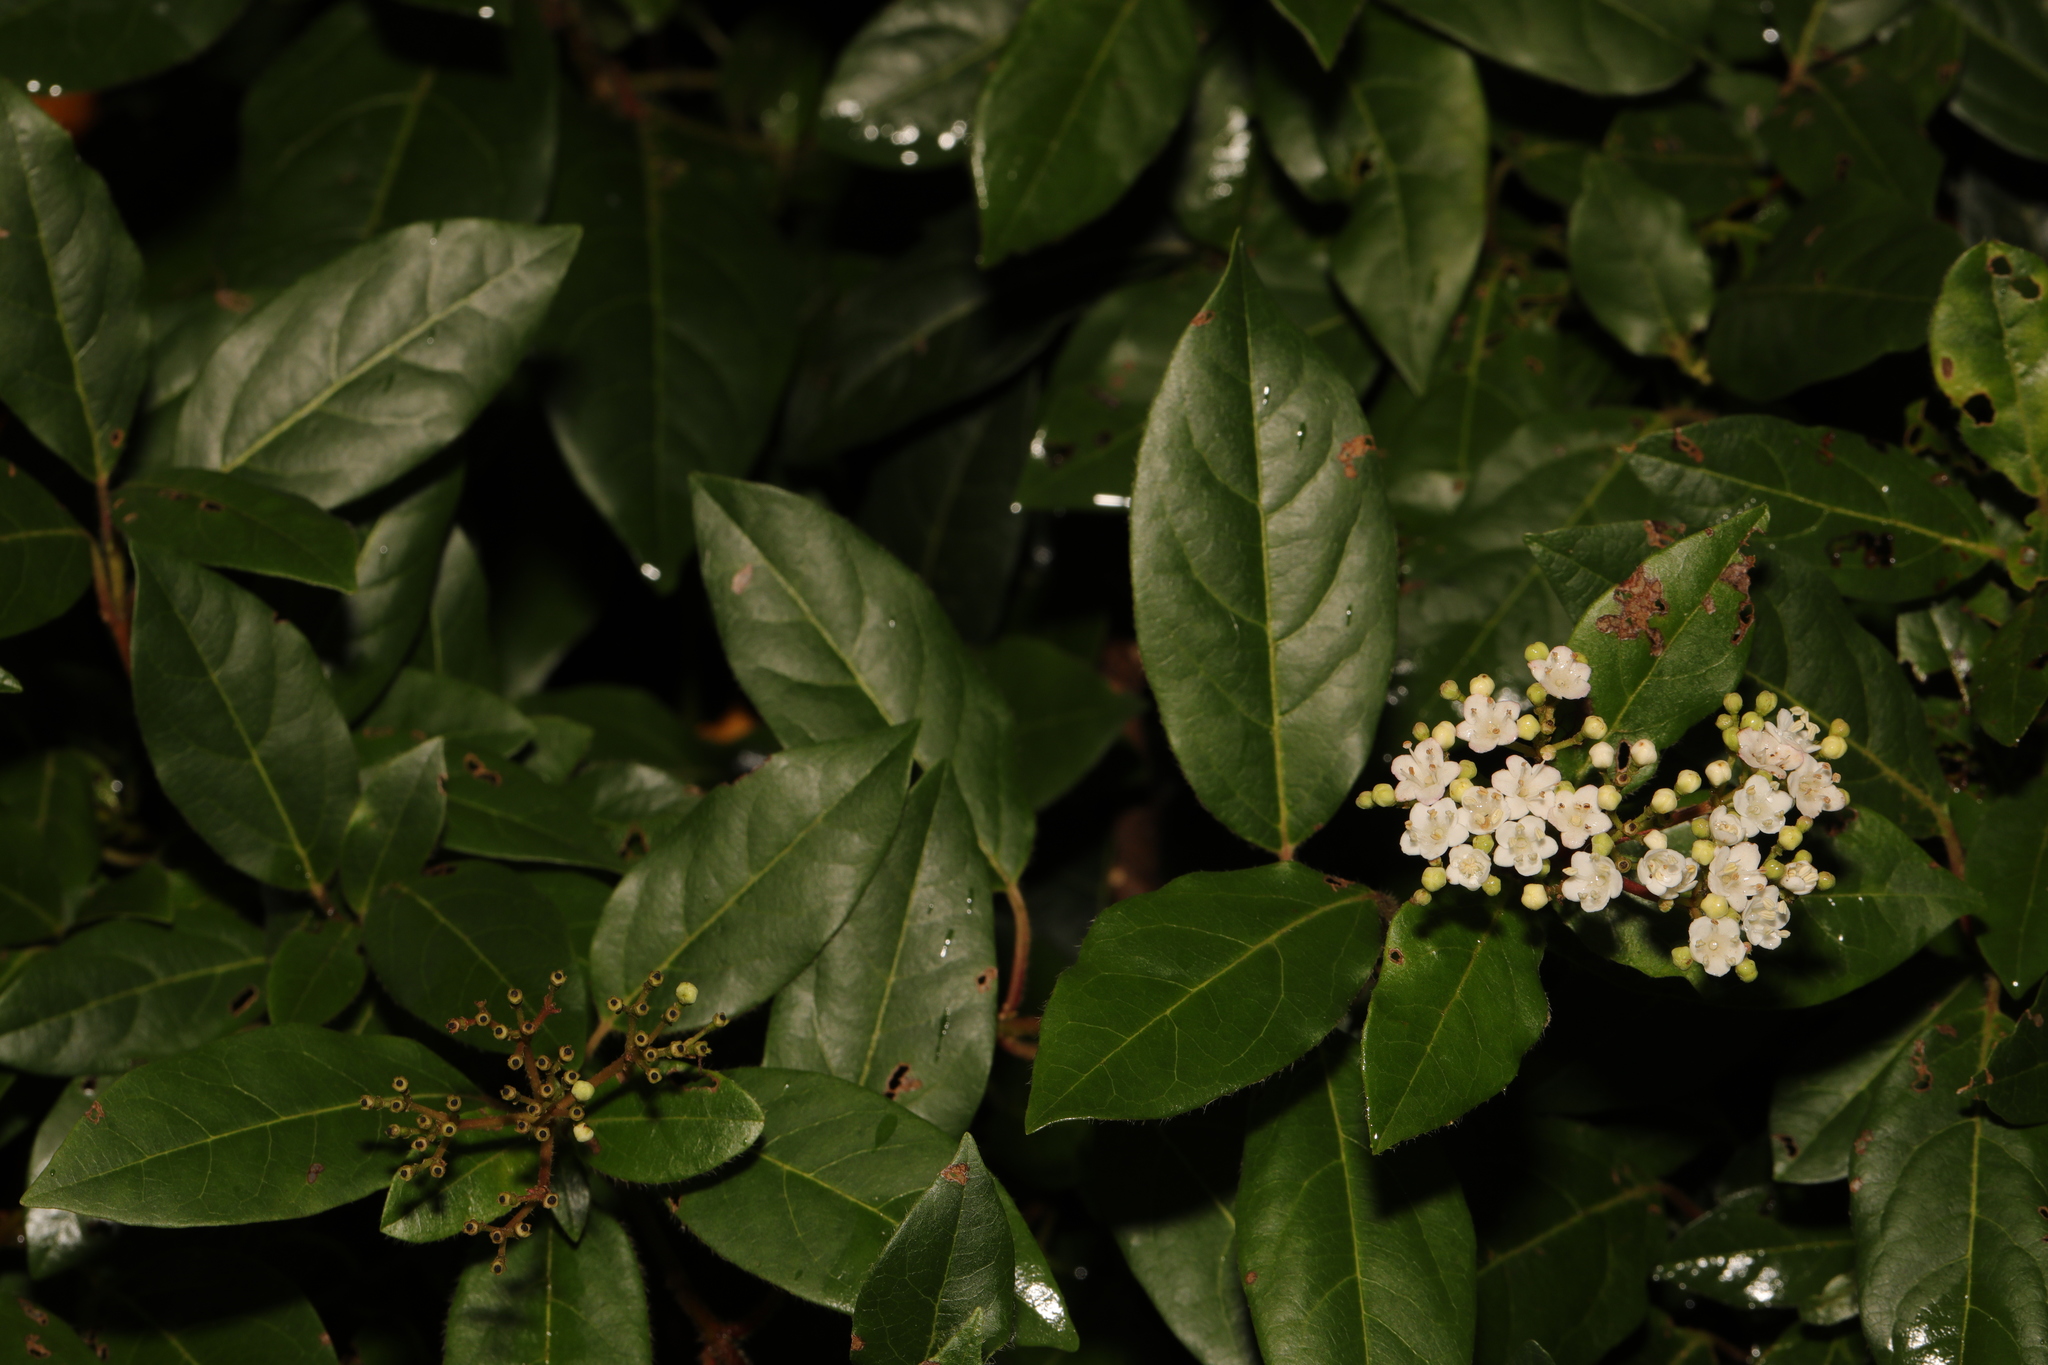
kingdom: Plantae
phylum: Tracheophyta
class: Magnoliopsida
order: Dipsacales
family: Viburnaceae
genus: Viburnum
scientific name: Viburnum tinus
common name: Laurustinus
